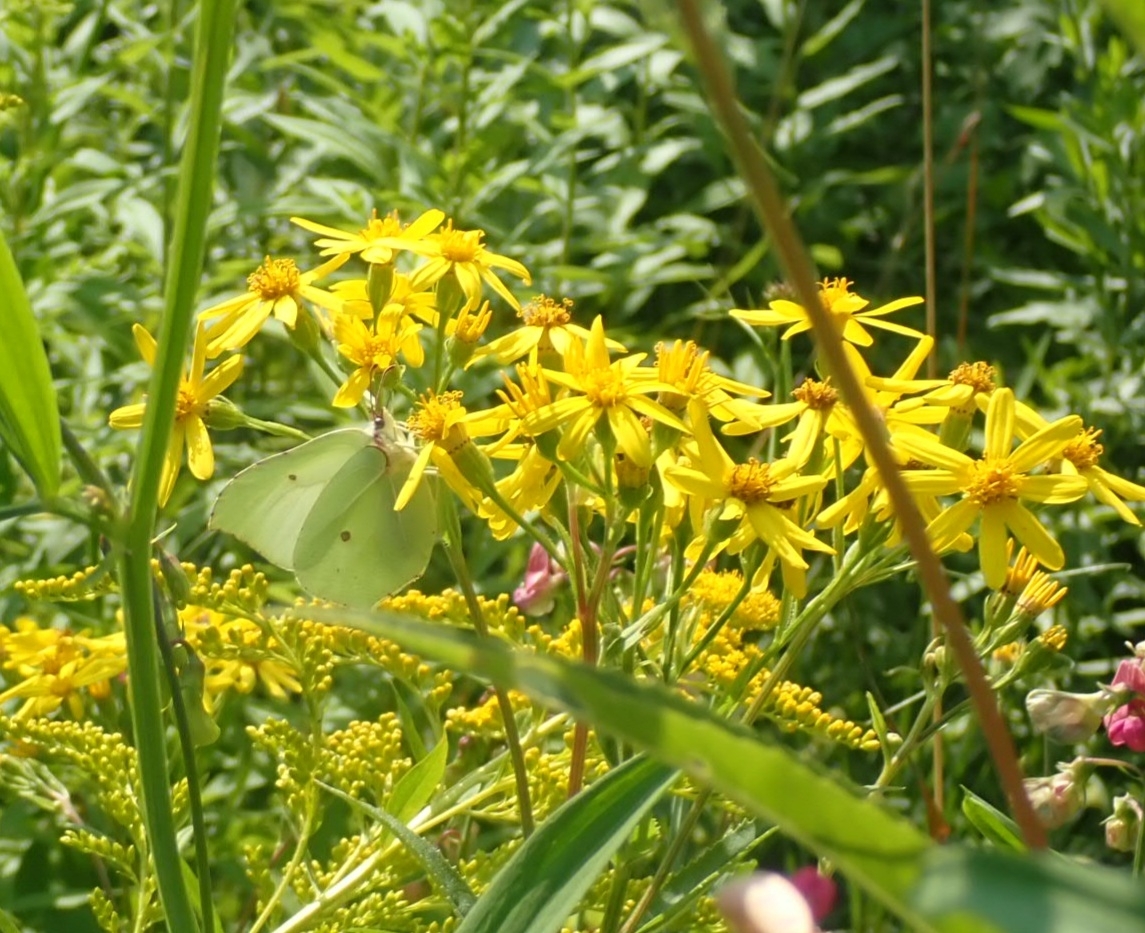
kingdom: Animalia
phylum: Arthropoda
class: Insecta
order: Lepidoptera
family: Pieridae
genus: Gonepteryx
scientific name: Gonepteryx rhamni
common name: Brimstone
